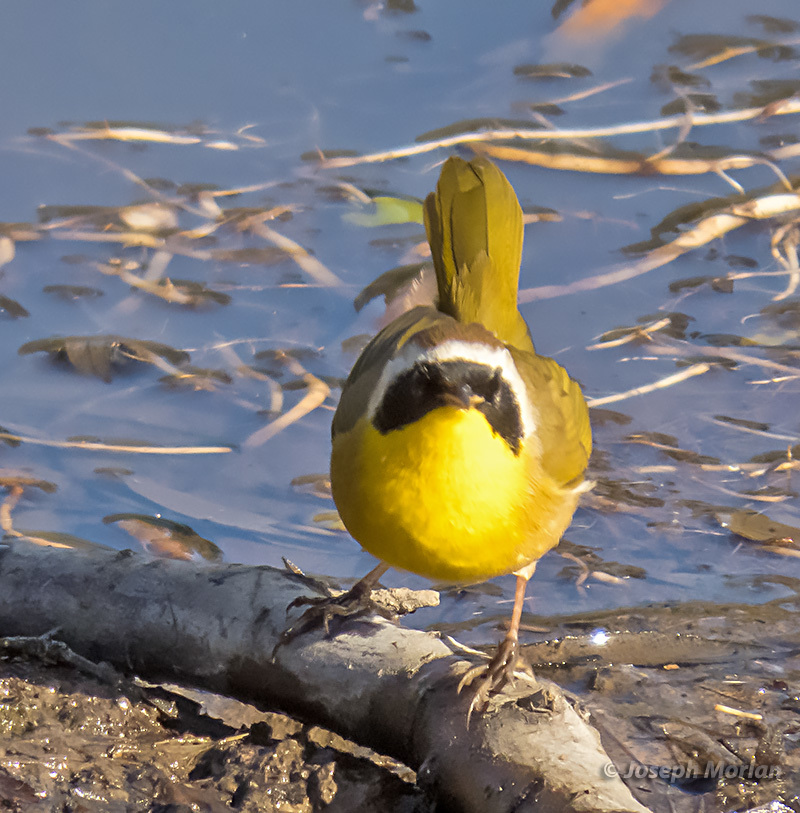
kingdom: Animalia
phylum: Chordata
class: Aves
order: Passeriformes
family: Parulidae
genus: Geothlypis
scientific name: Geothlypis trichas
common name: Common yellowthroat
